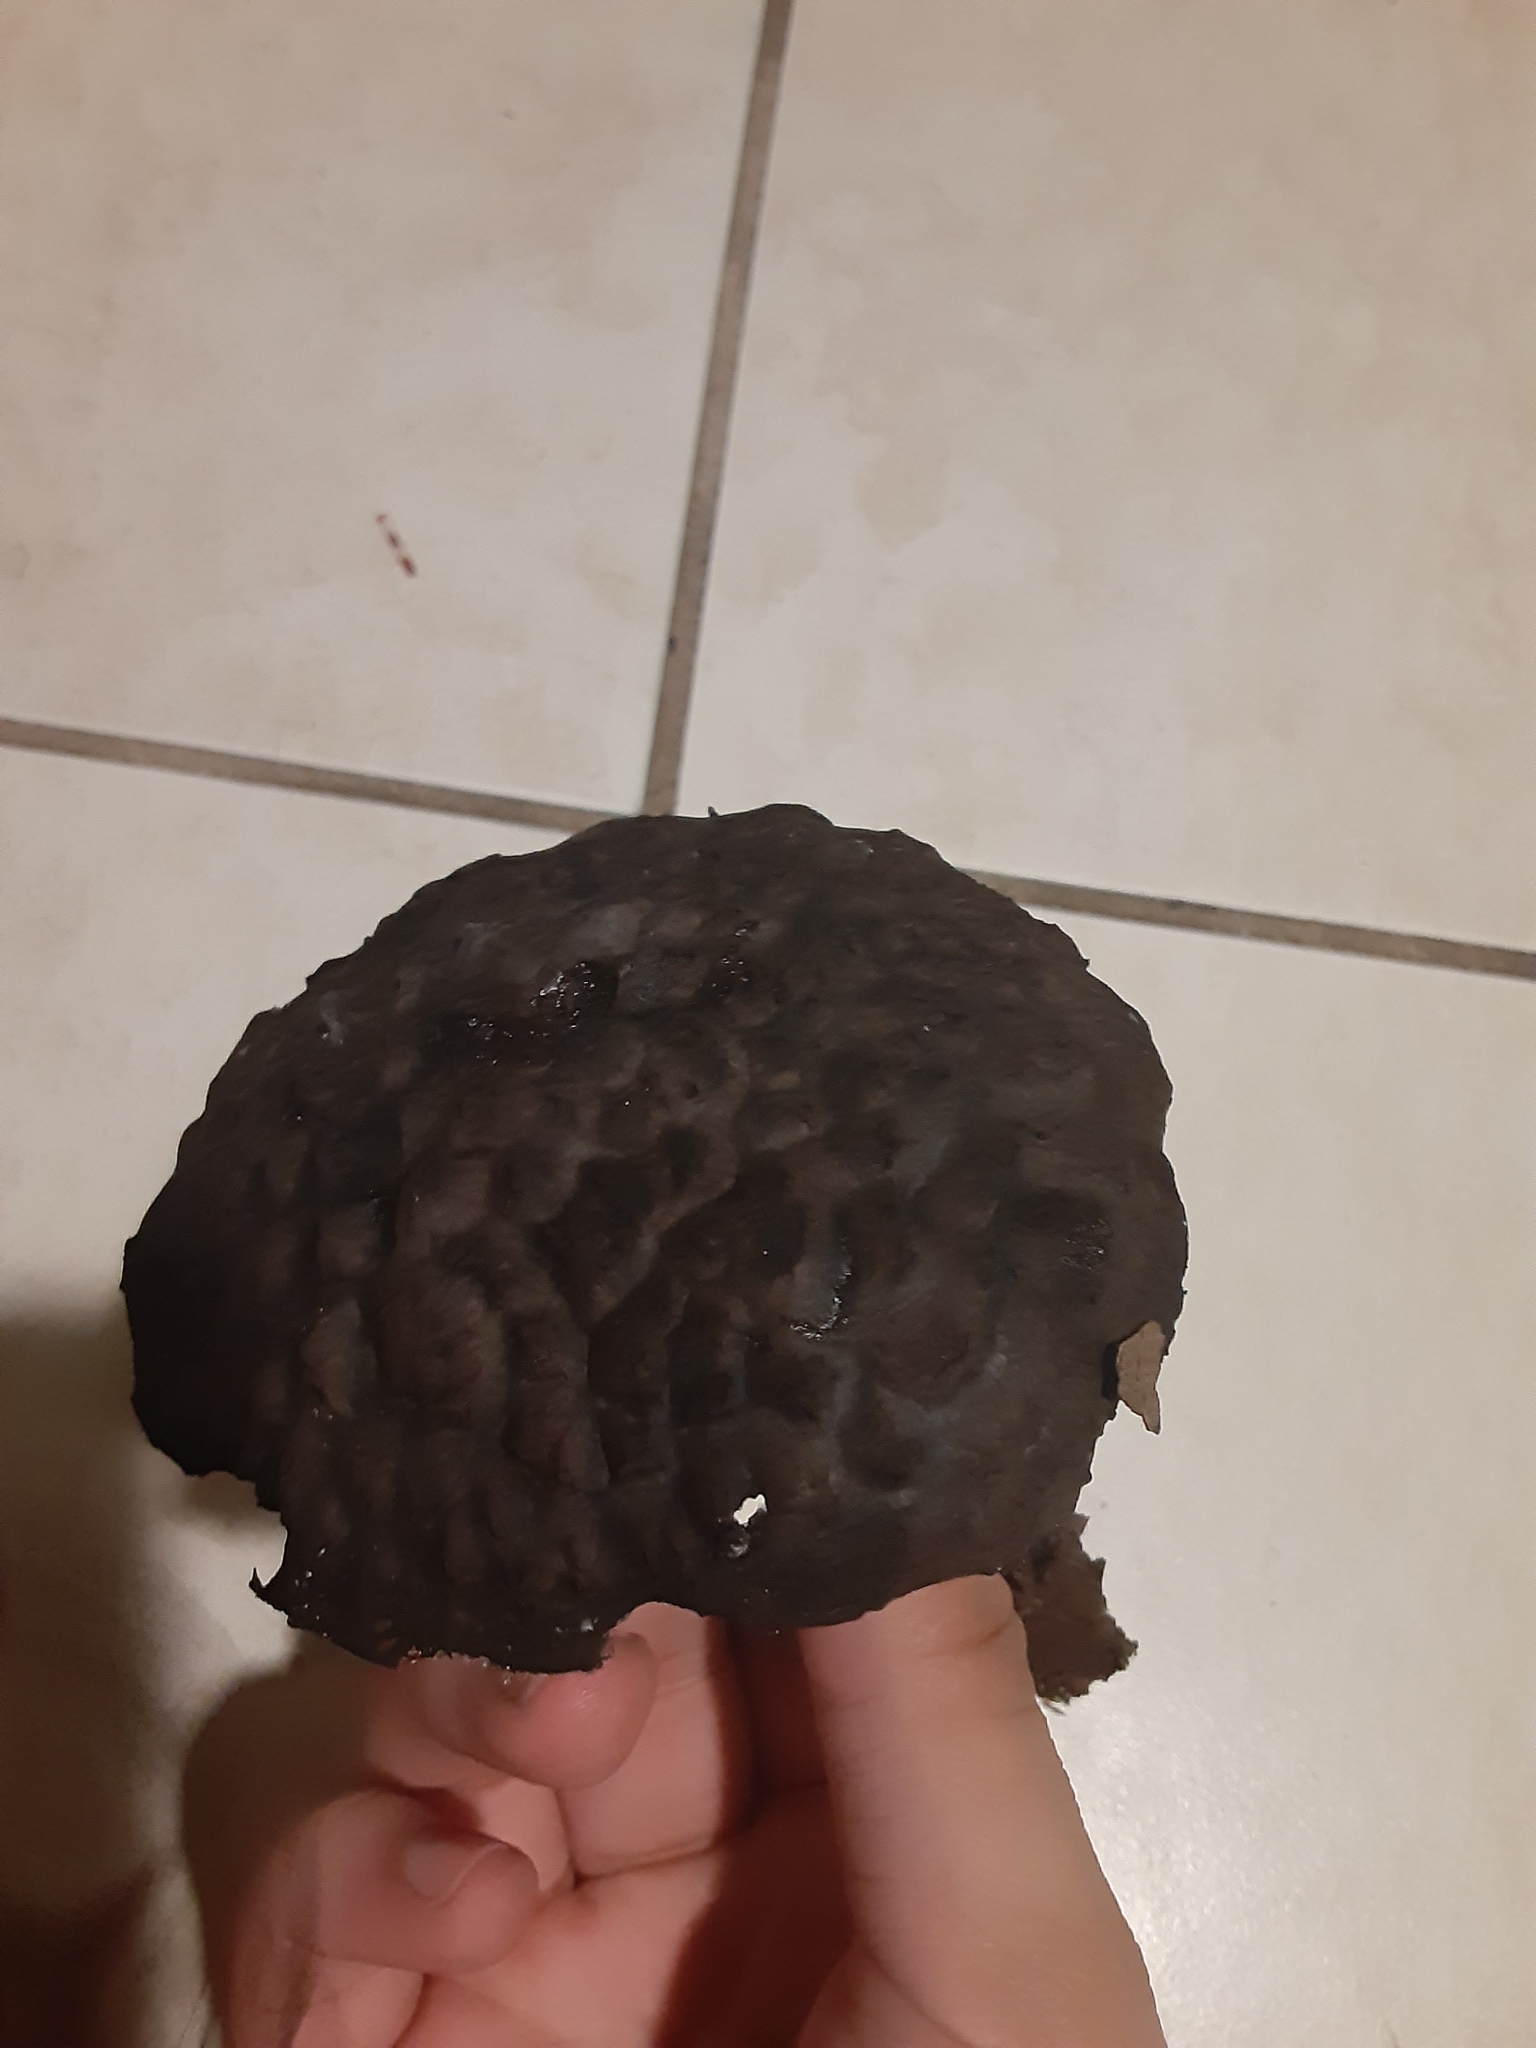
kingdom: Fungi
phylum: Basidiomycota
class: Agaricomycetes
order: Boletales
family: Boletaceae
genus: Strobilomyces
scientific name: Strobilomyces strobilaceus
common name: Old man of the woods
